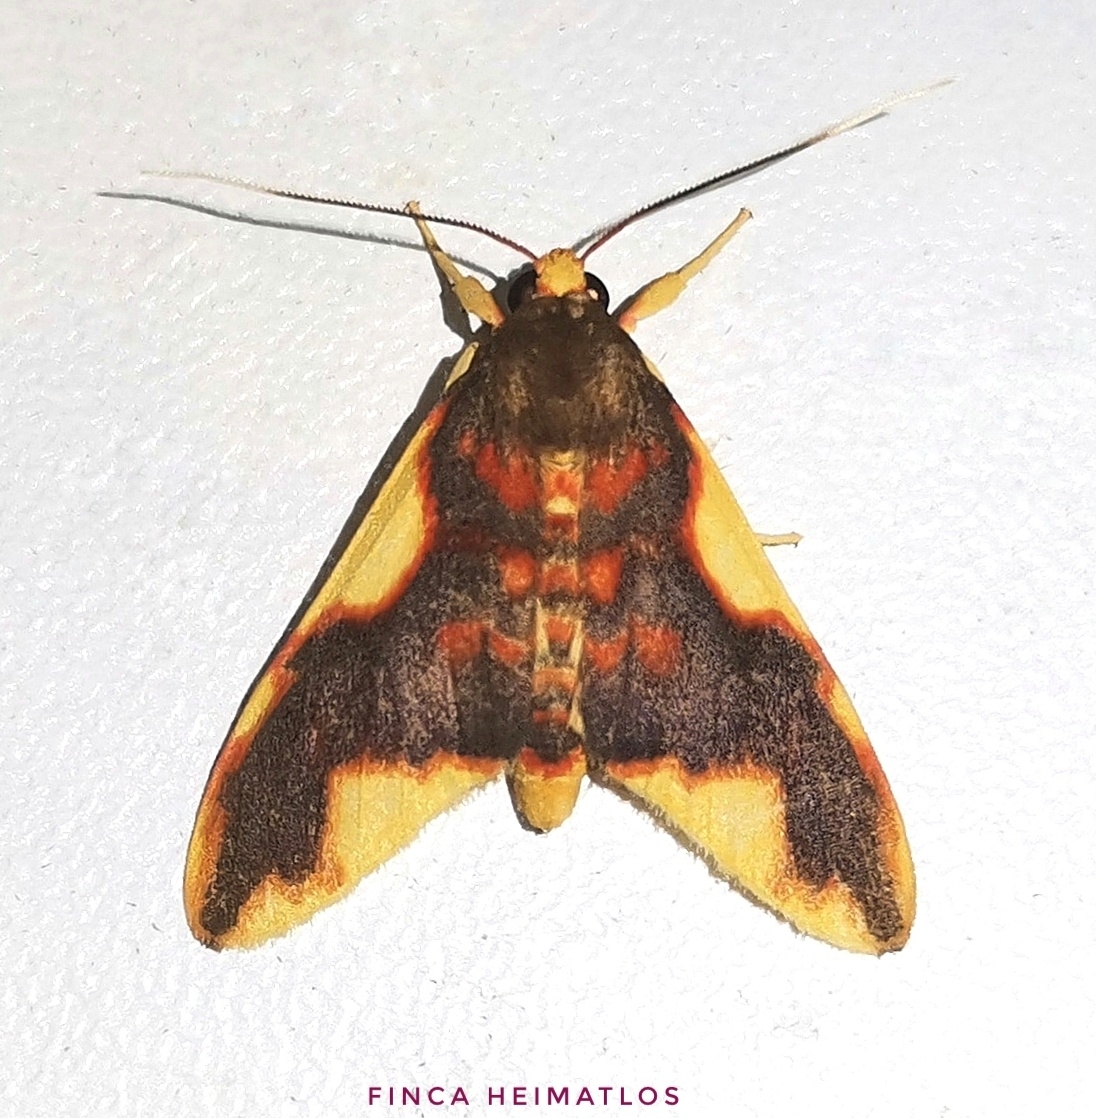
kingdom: Animalia
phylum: Arthropoda
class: Insecta
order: Lepidoptera
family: Erebidae
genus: Hyponerita
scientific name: Hyponerita declivis
